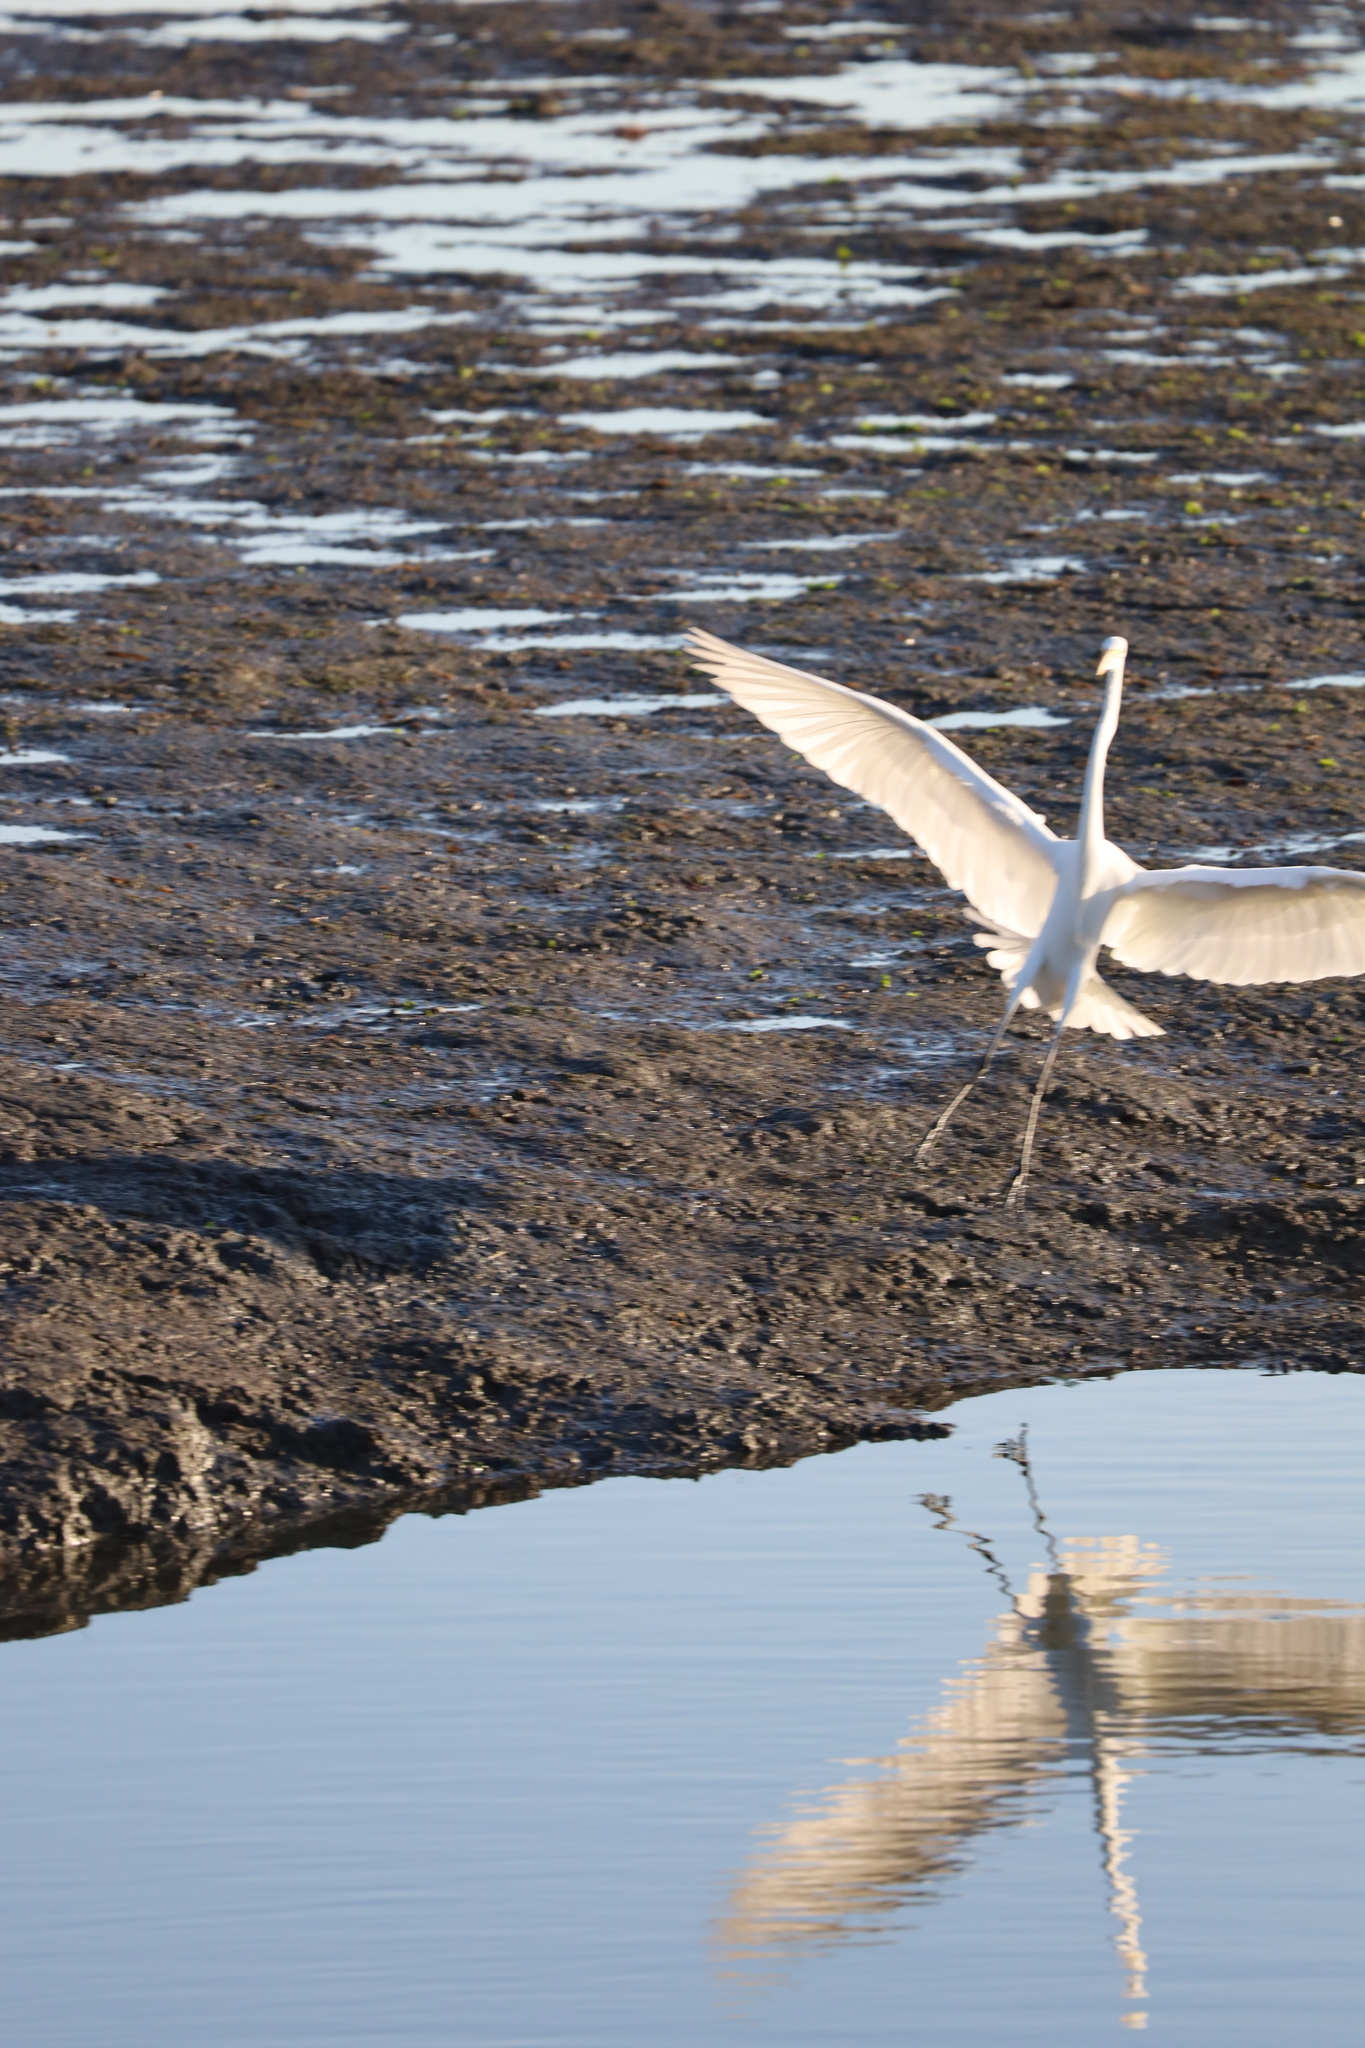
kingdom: Animalia
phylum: Chordata
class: Aves
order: Pelecaniformes
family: Ardeidae
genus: Ardea
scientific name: Ardea alba
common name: Great egret
